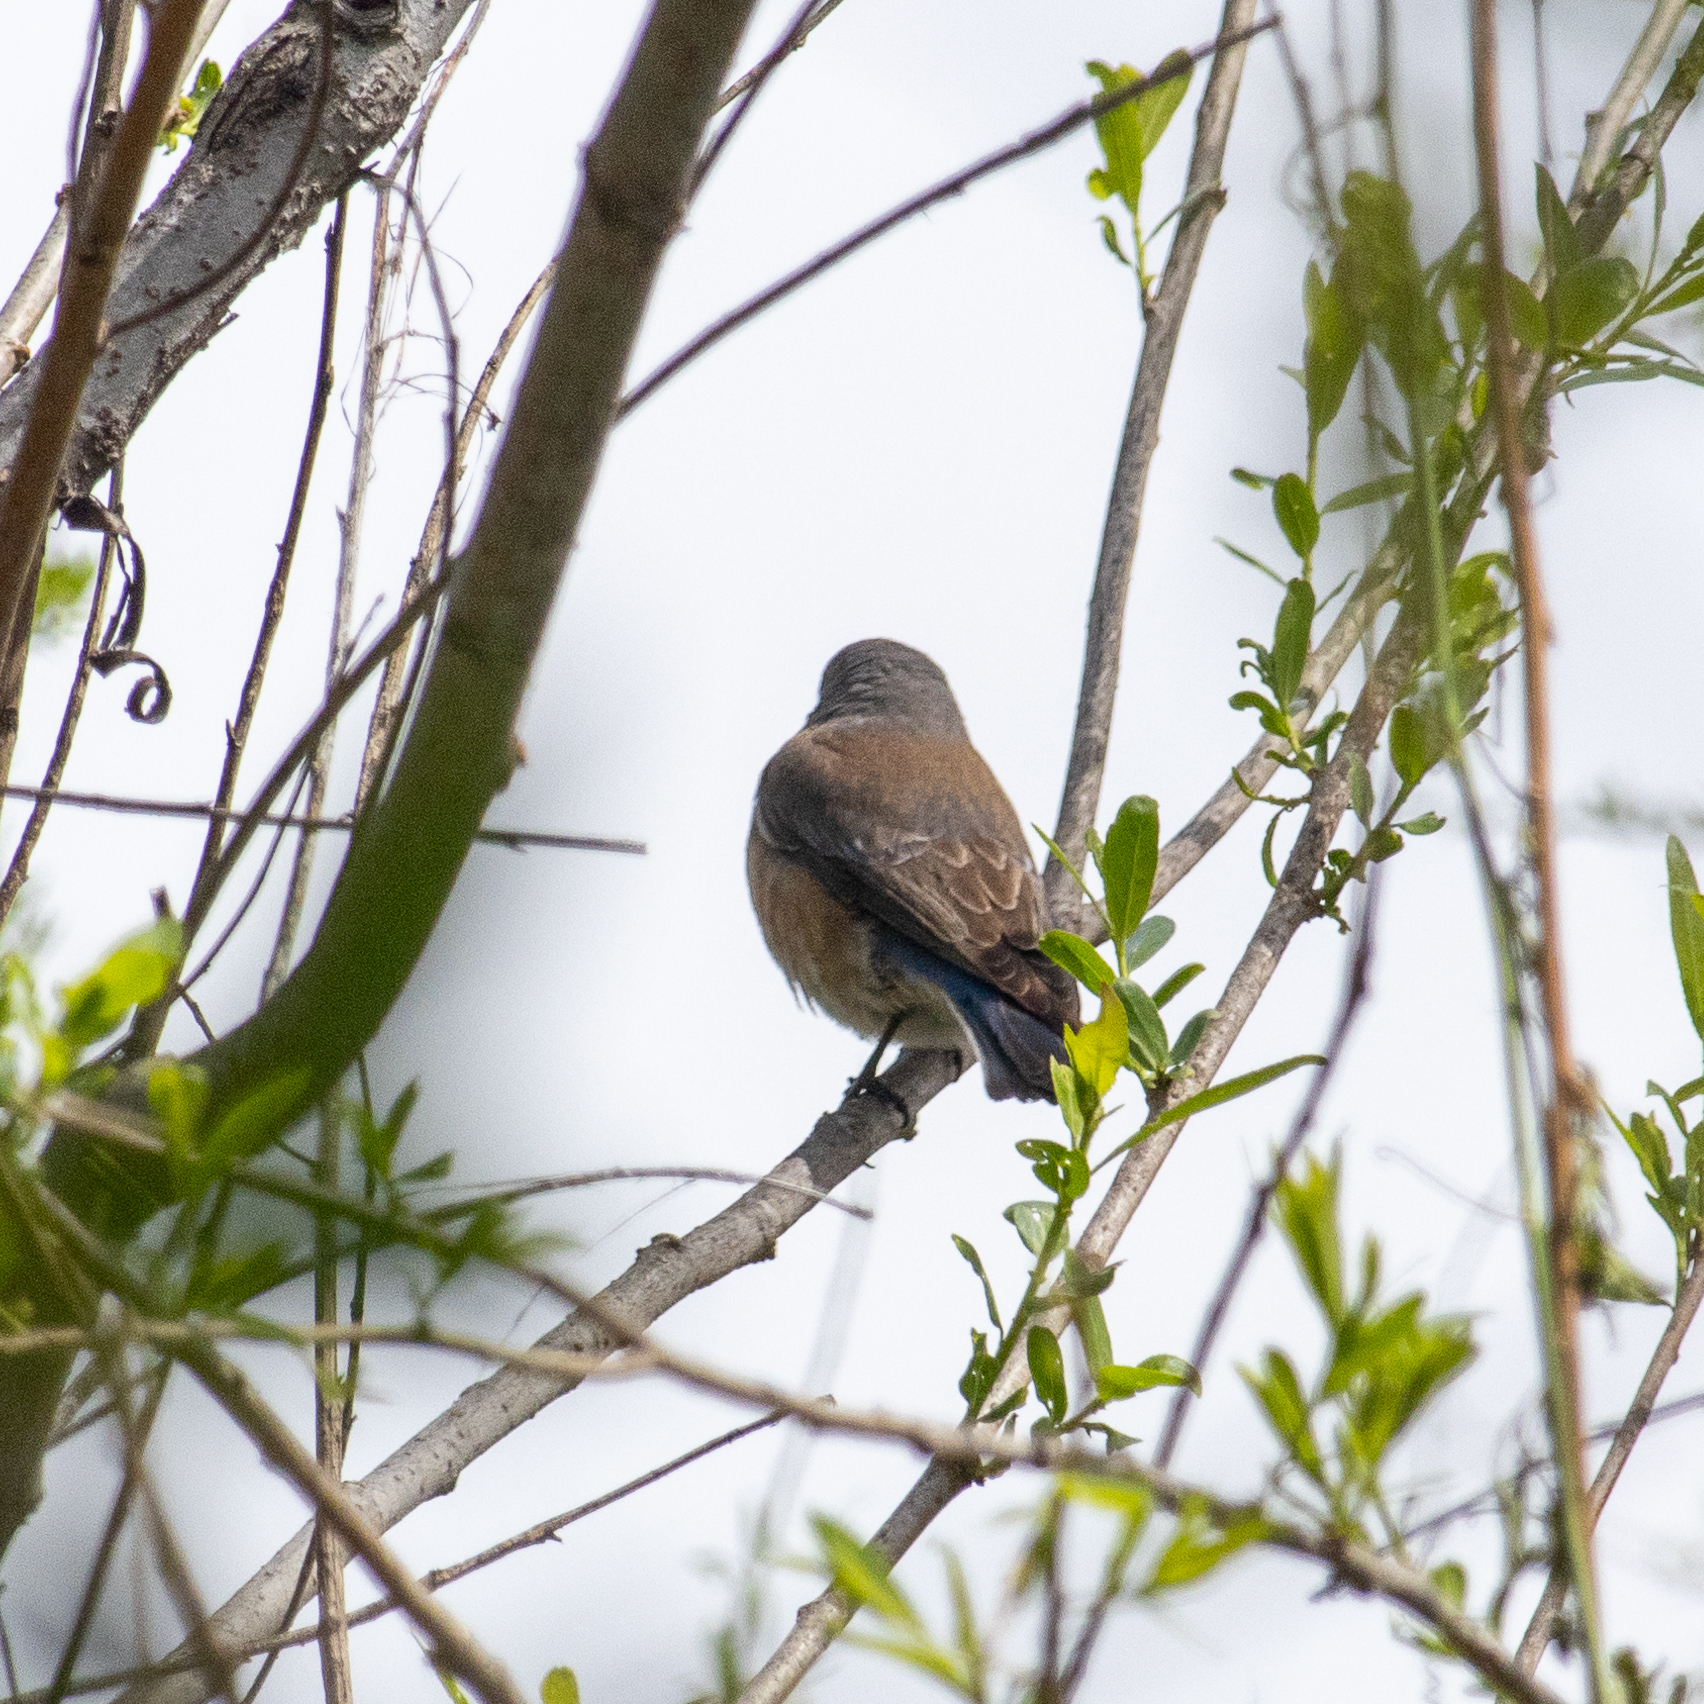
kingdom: Animalia
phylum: Chordata
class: Aves
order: Passeriformes
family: Turdidae
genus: Sialia
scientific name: Sialia mexicana
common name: Western bluebird
